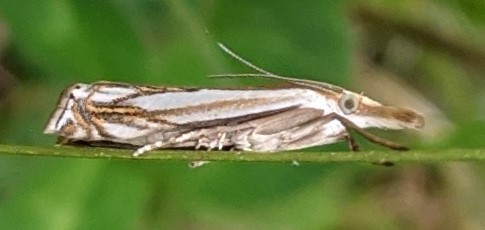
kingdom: Animalia
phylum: Arthropoda
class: Insecta
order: Lepidoptera
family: Crambidae
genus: Crambus
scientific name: Crambus saltuellus
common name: Pasture grass-veneer
